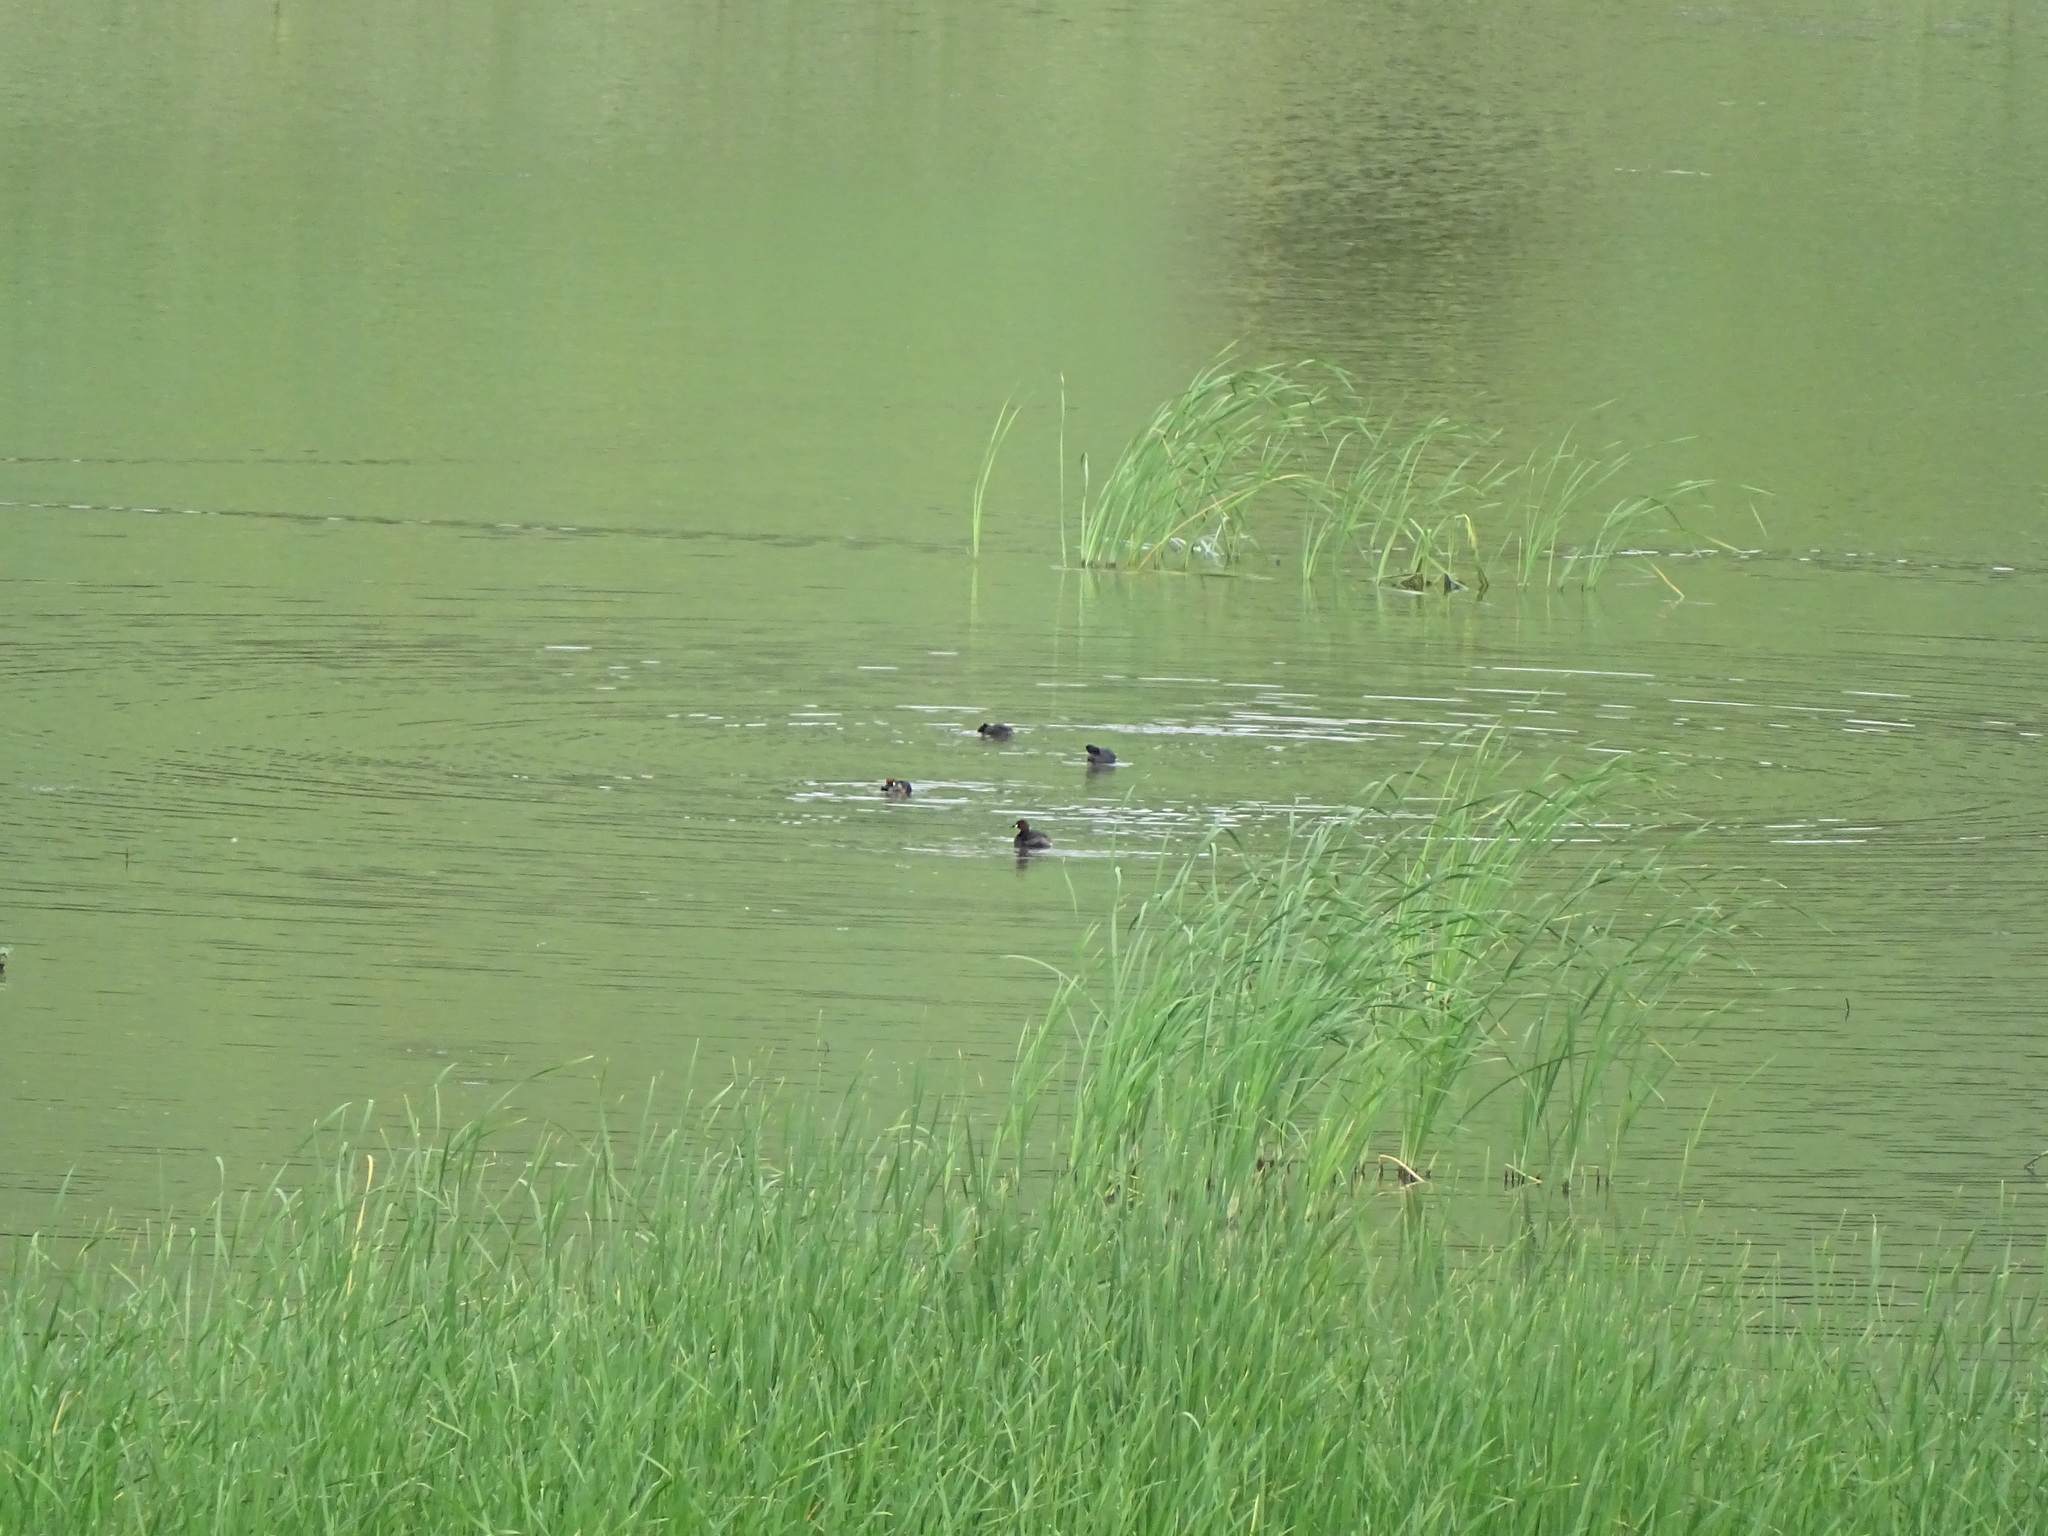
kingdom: Animalia
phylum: Chordata
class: Aves
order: Gruiformes
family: Rallidae
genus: Fulica
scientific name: Fulica atra
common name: Eurasian coot
